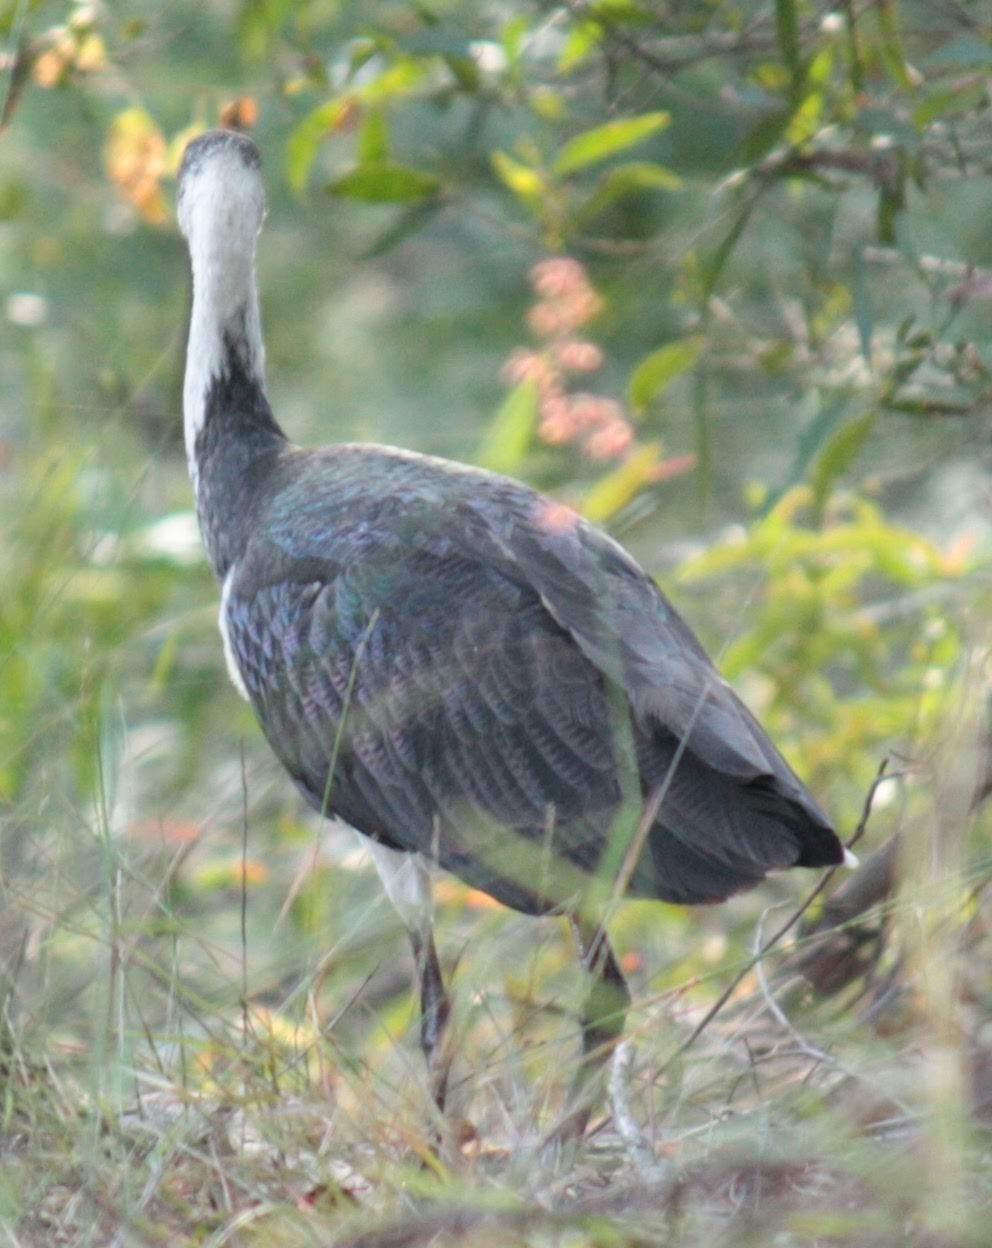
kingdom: Animalia
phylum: Chordata
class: Aves
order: Pelecaniformes
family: Threskiornithidae
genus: Threskiornis
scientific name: Threskiornis spinicollis
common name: Straw-necked ibis
